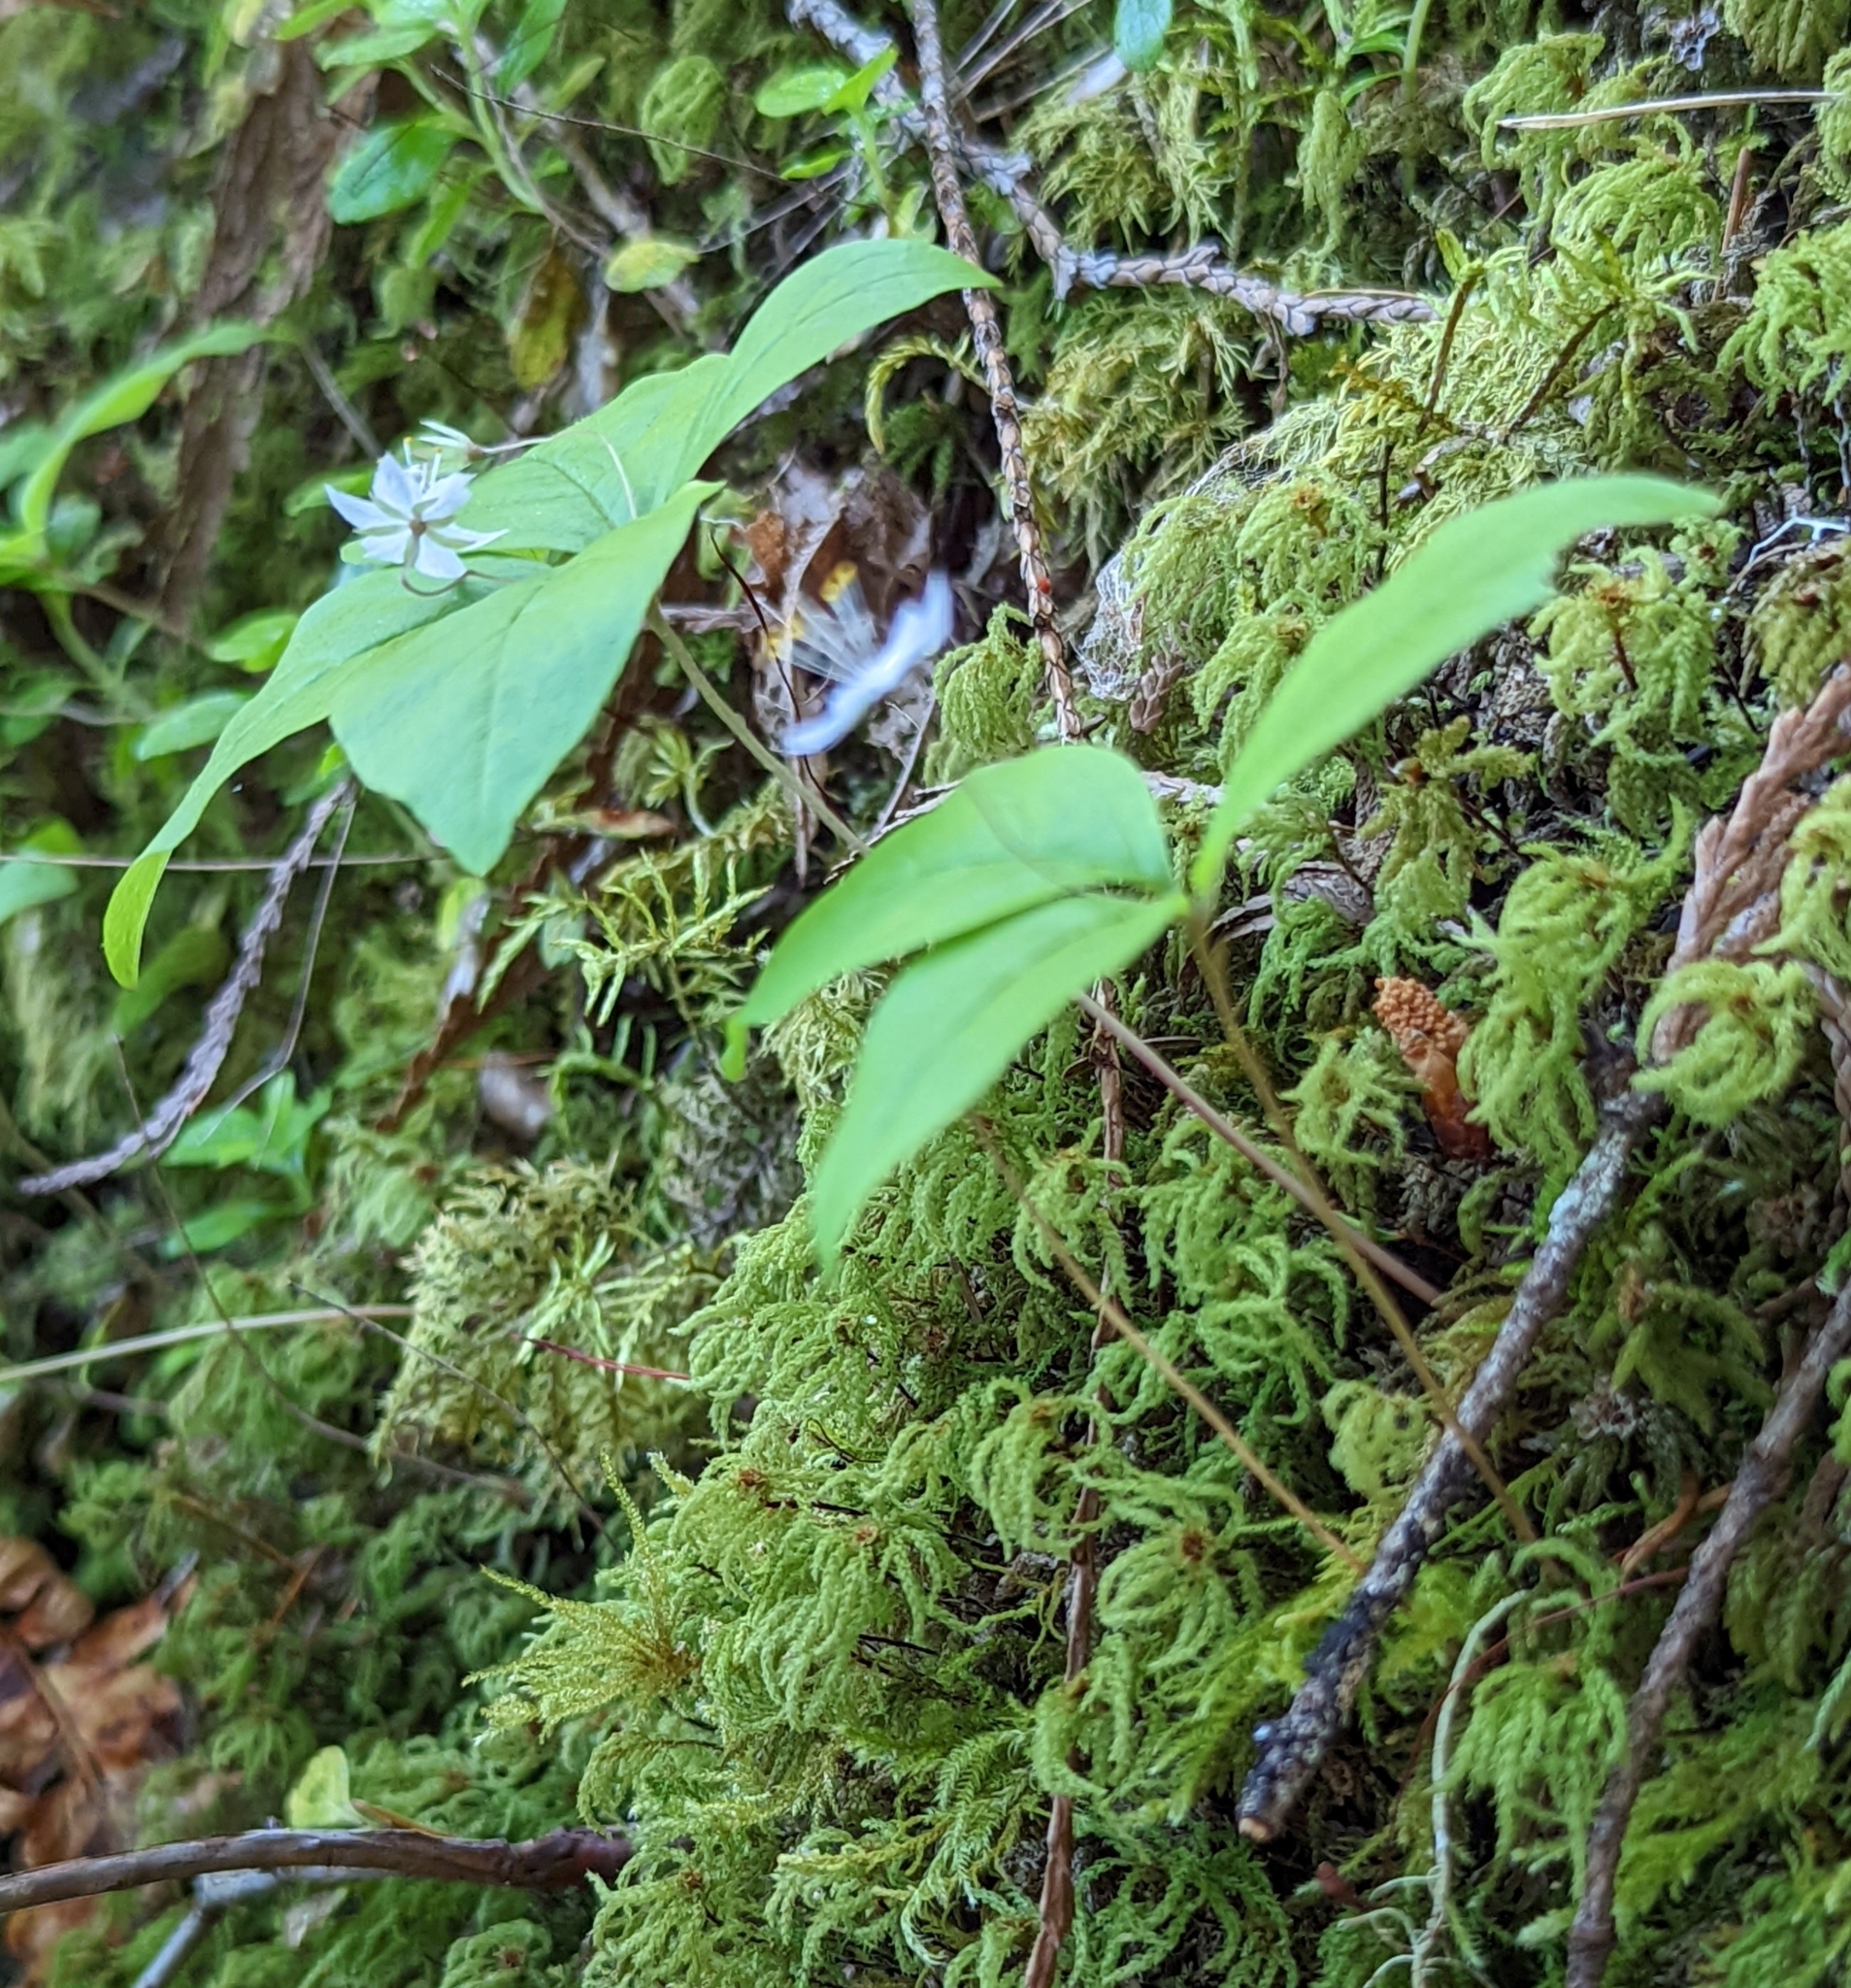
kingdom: Plantae
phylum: Tracheophyta
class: Magnoliopsida
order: Ericales
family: Primulaceae
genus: Lysimachia
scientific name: Lysimachia latifolia
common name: Pacific starflower
